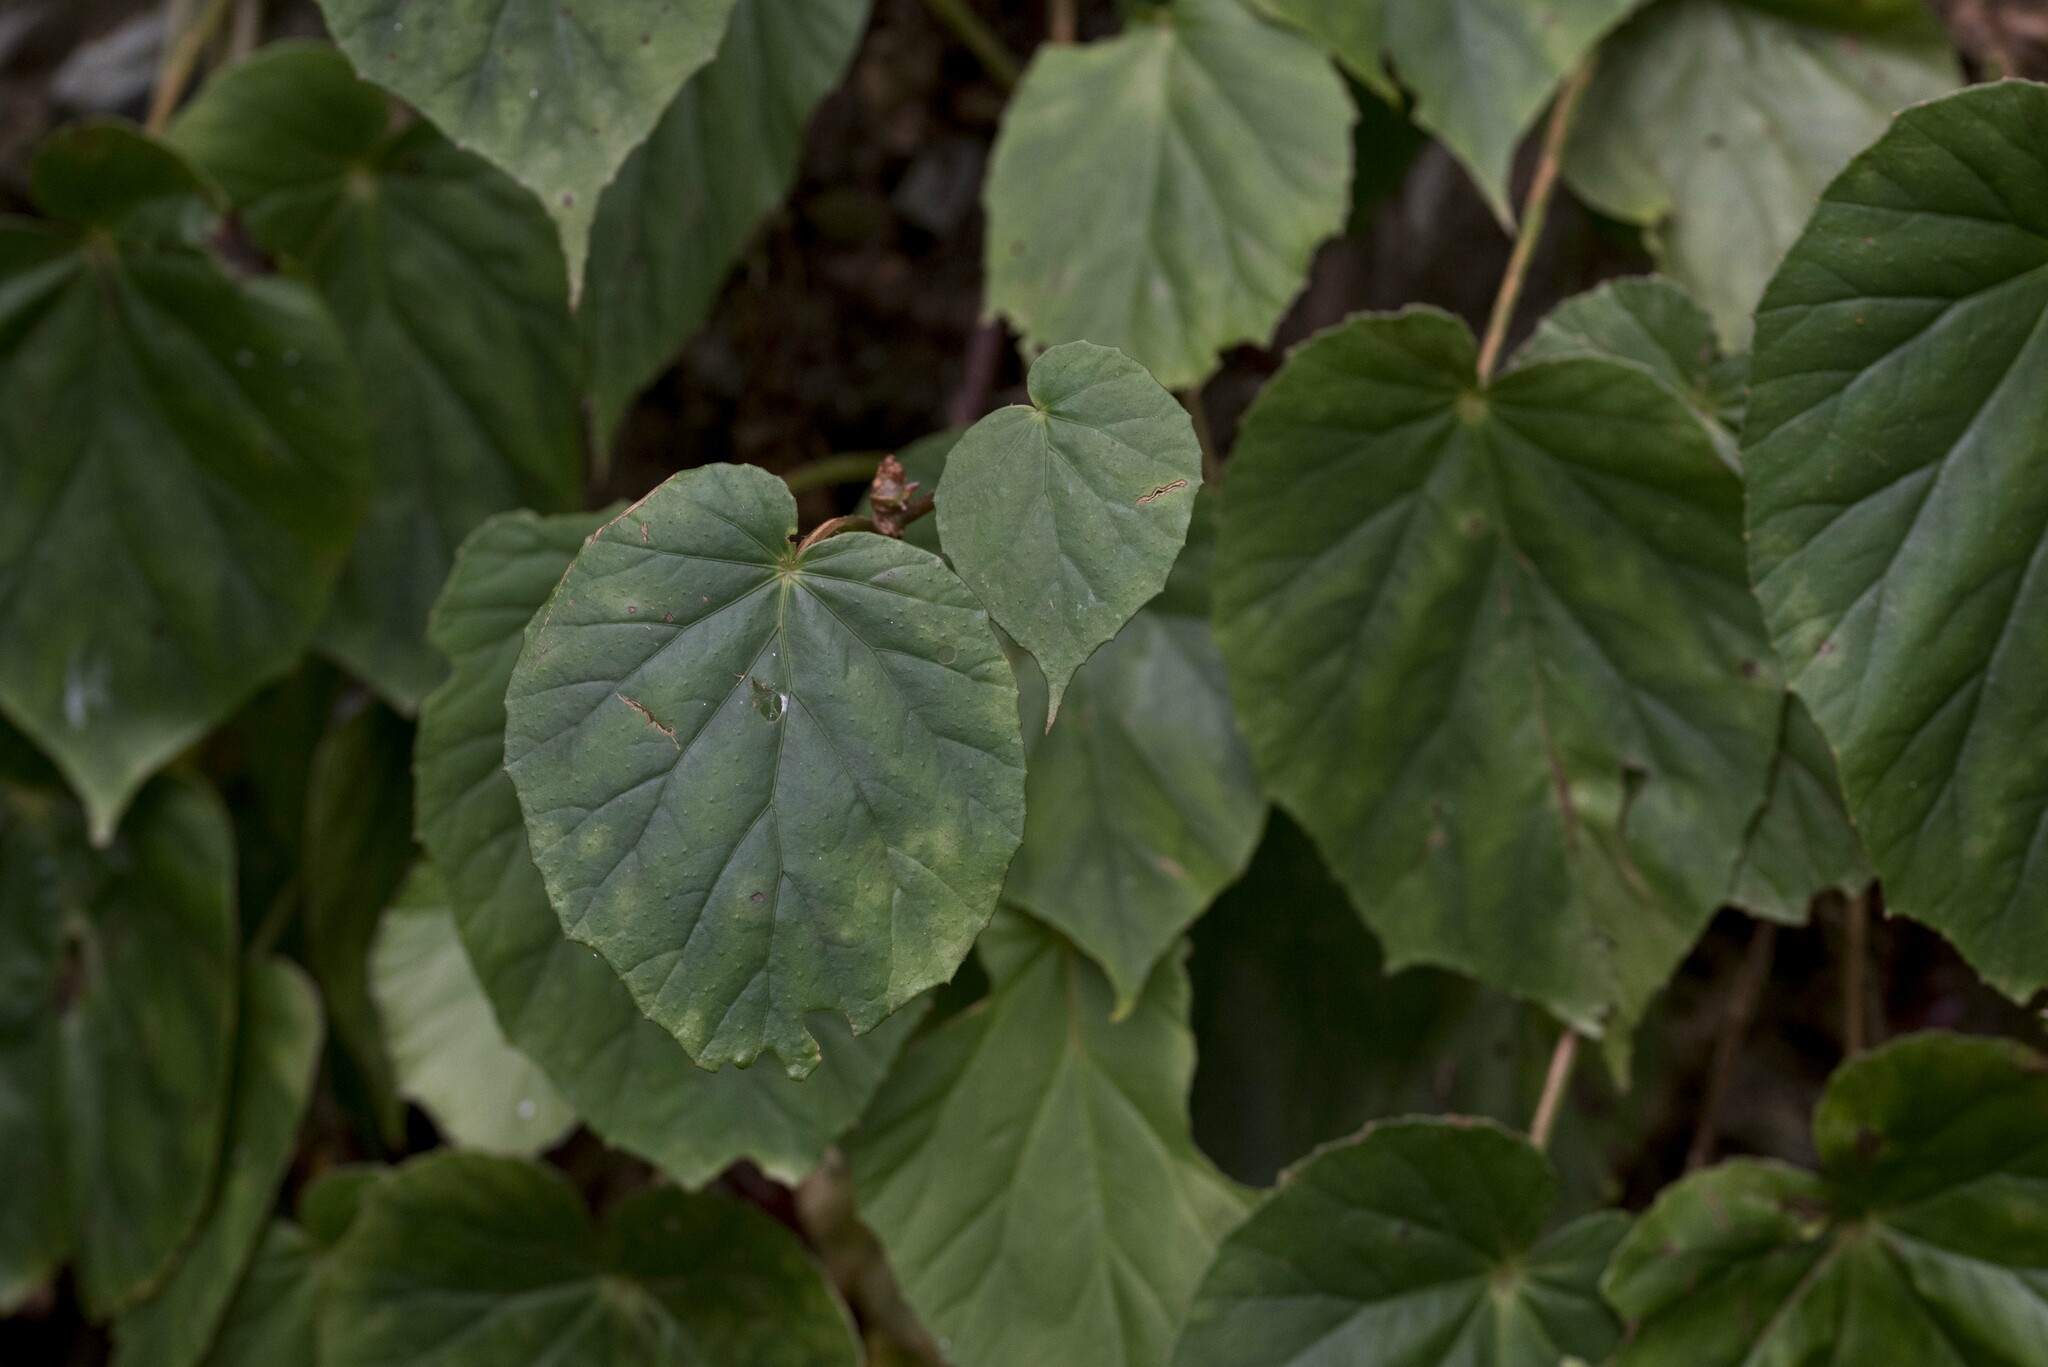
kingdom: Plantae
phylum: Tracheophyta
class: Magnoliopsida
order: Cucurbitales
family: Begoniaceae
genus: Begonia
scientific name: Begonia chitoensis
